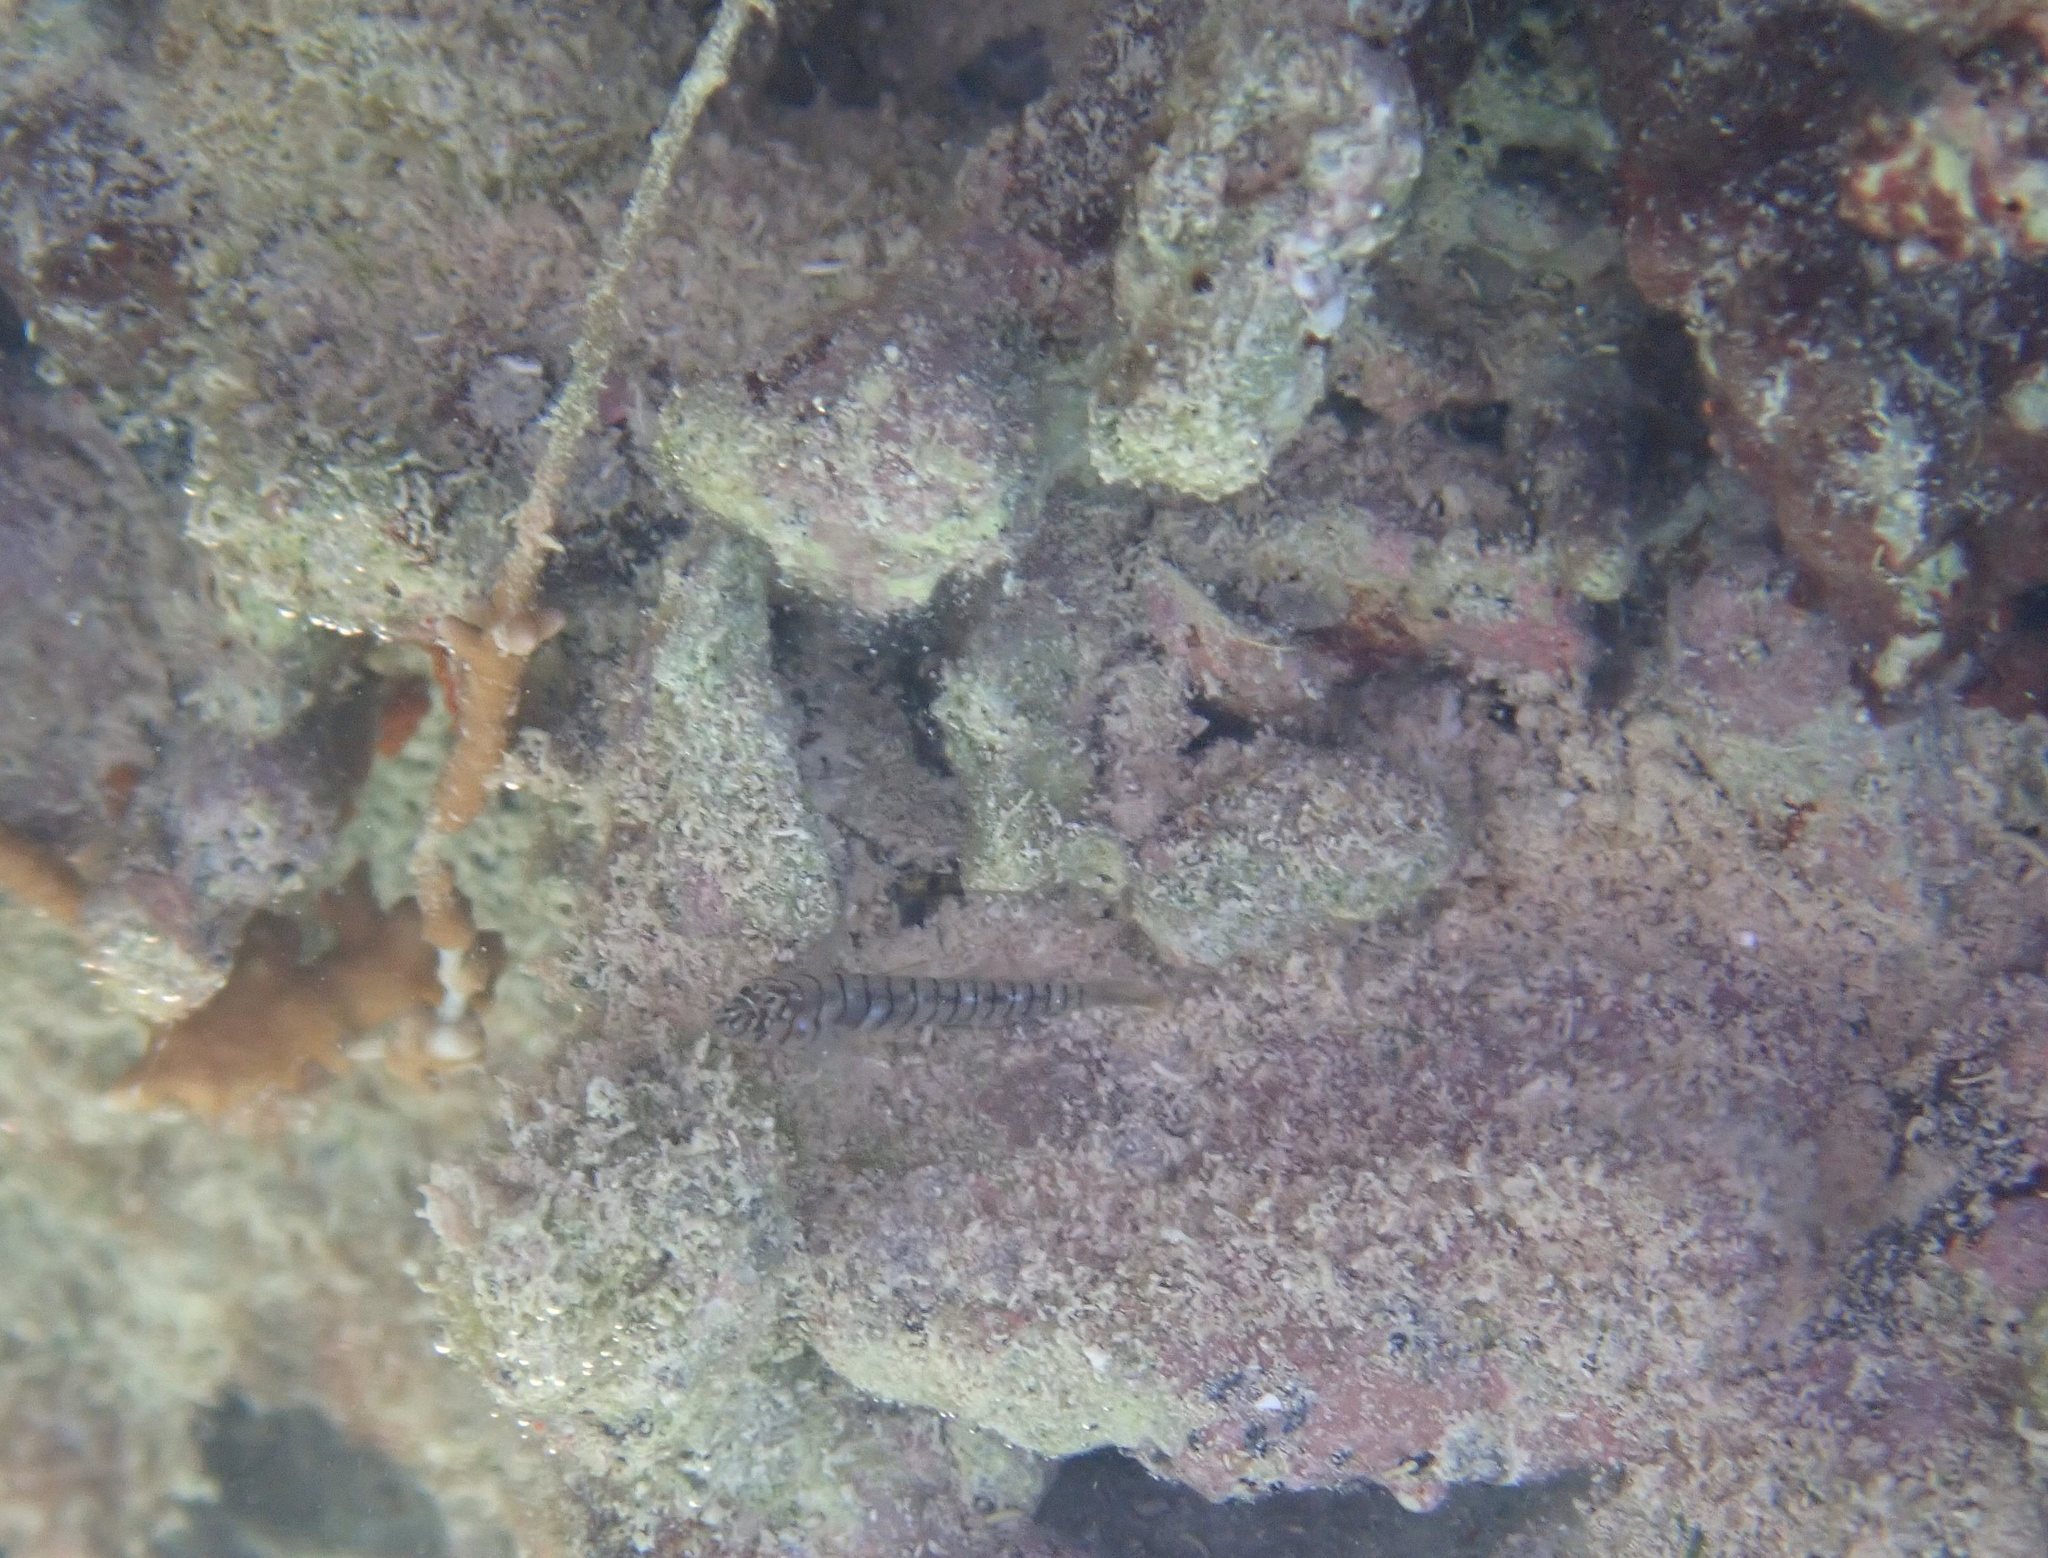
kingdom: Animalia
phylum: Chordata
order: Perciformes
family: Gobiidae
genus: Tigrigobius
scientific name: Tigrigobius macrodon
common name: Tiger goby
